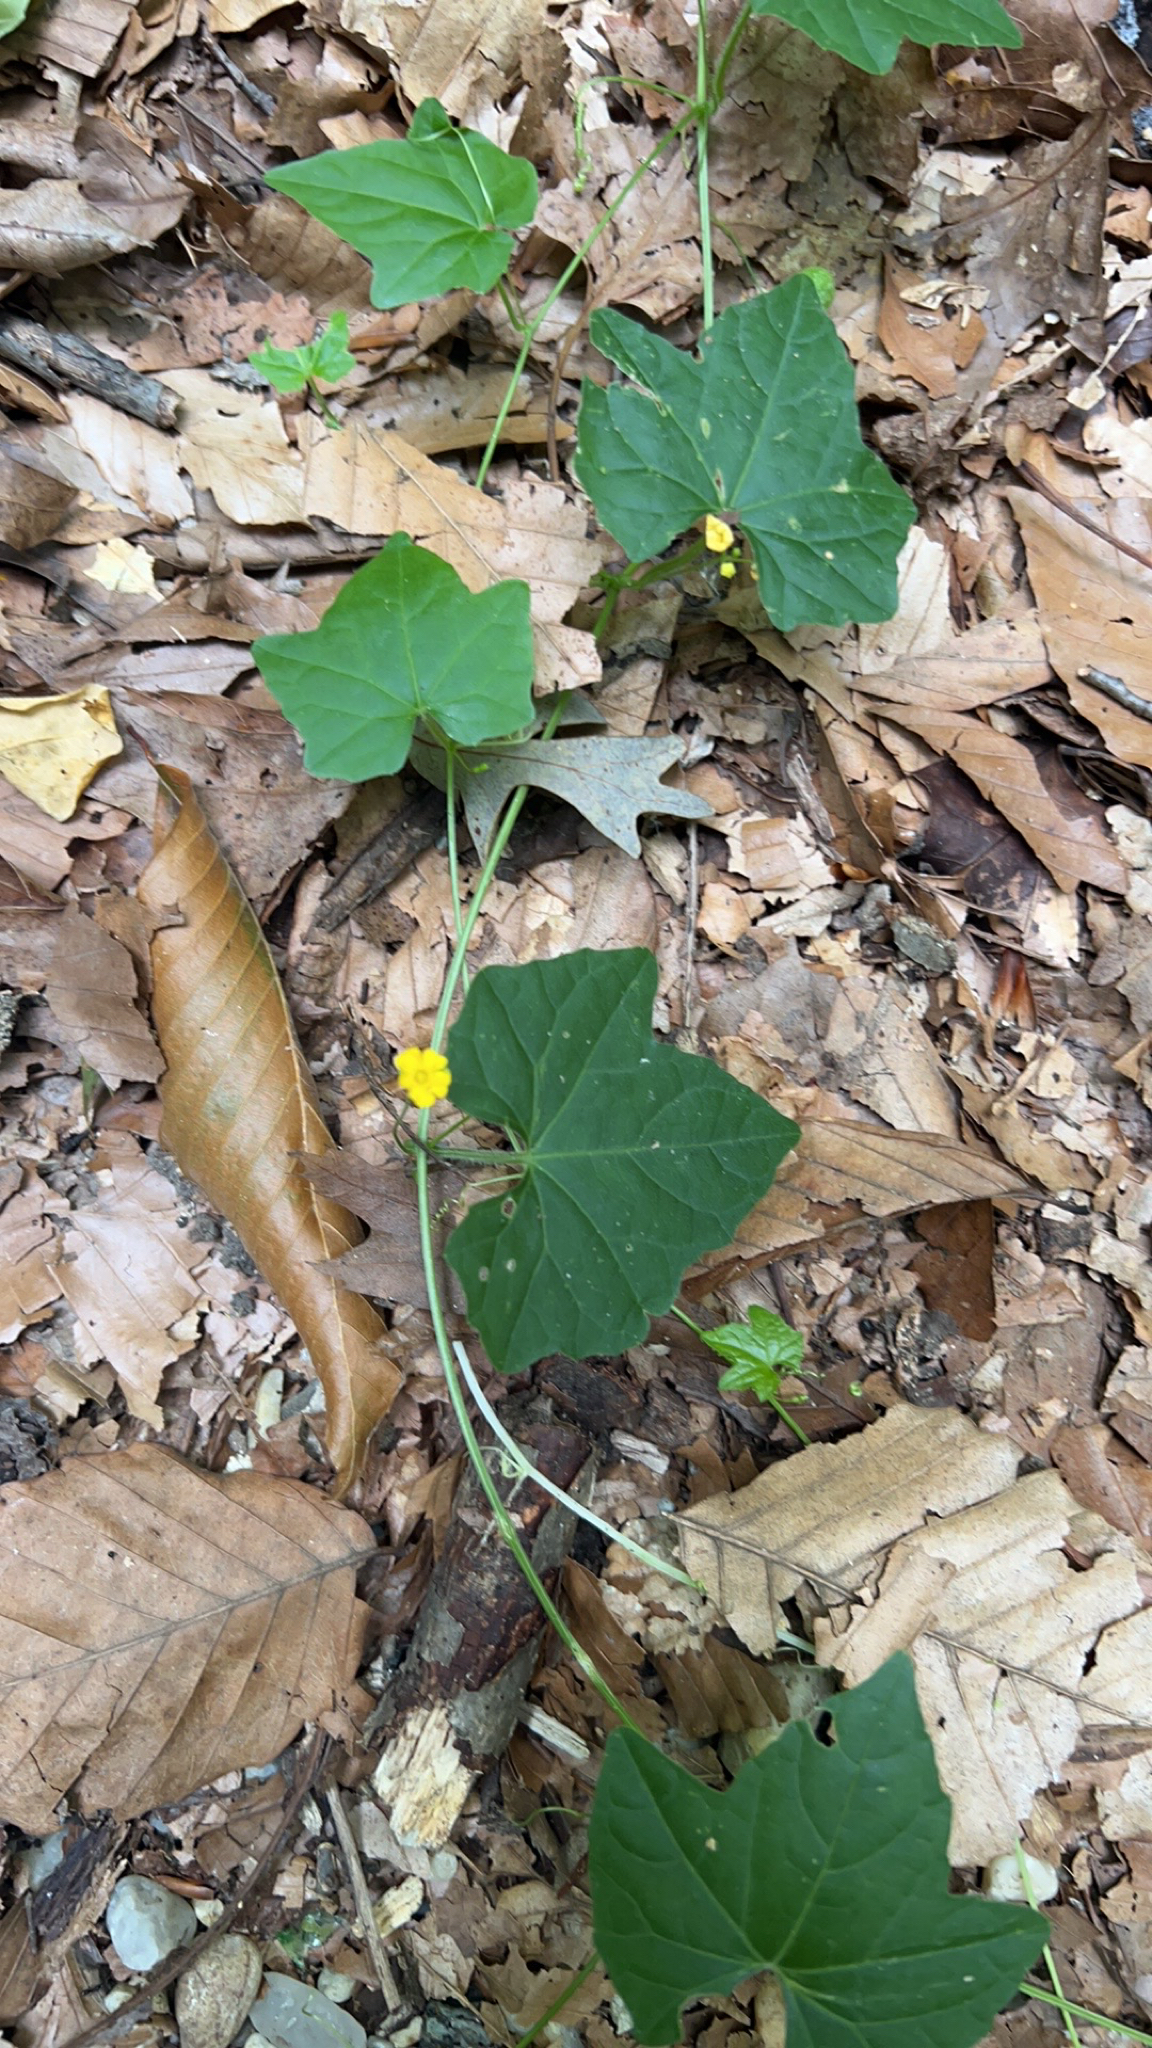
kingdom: Plantae
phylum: Tracheophyta
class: Magnoliopsida
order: Cucurbitales
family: Cucurbitaceae
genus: Melothria
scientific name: Melothria pendula
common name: Creeping-cucumber
